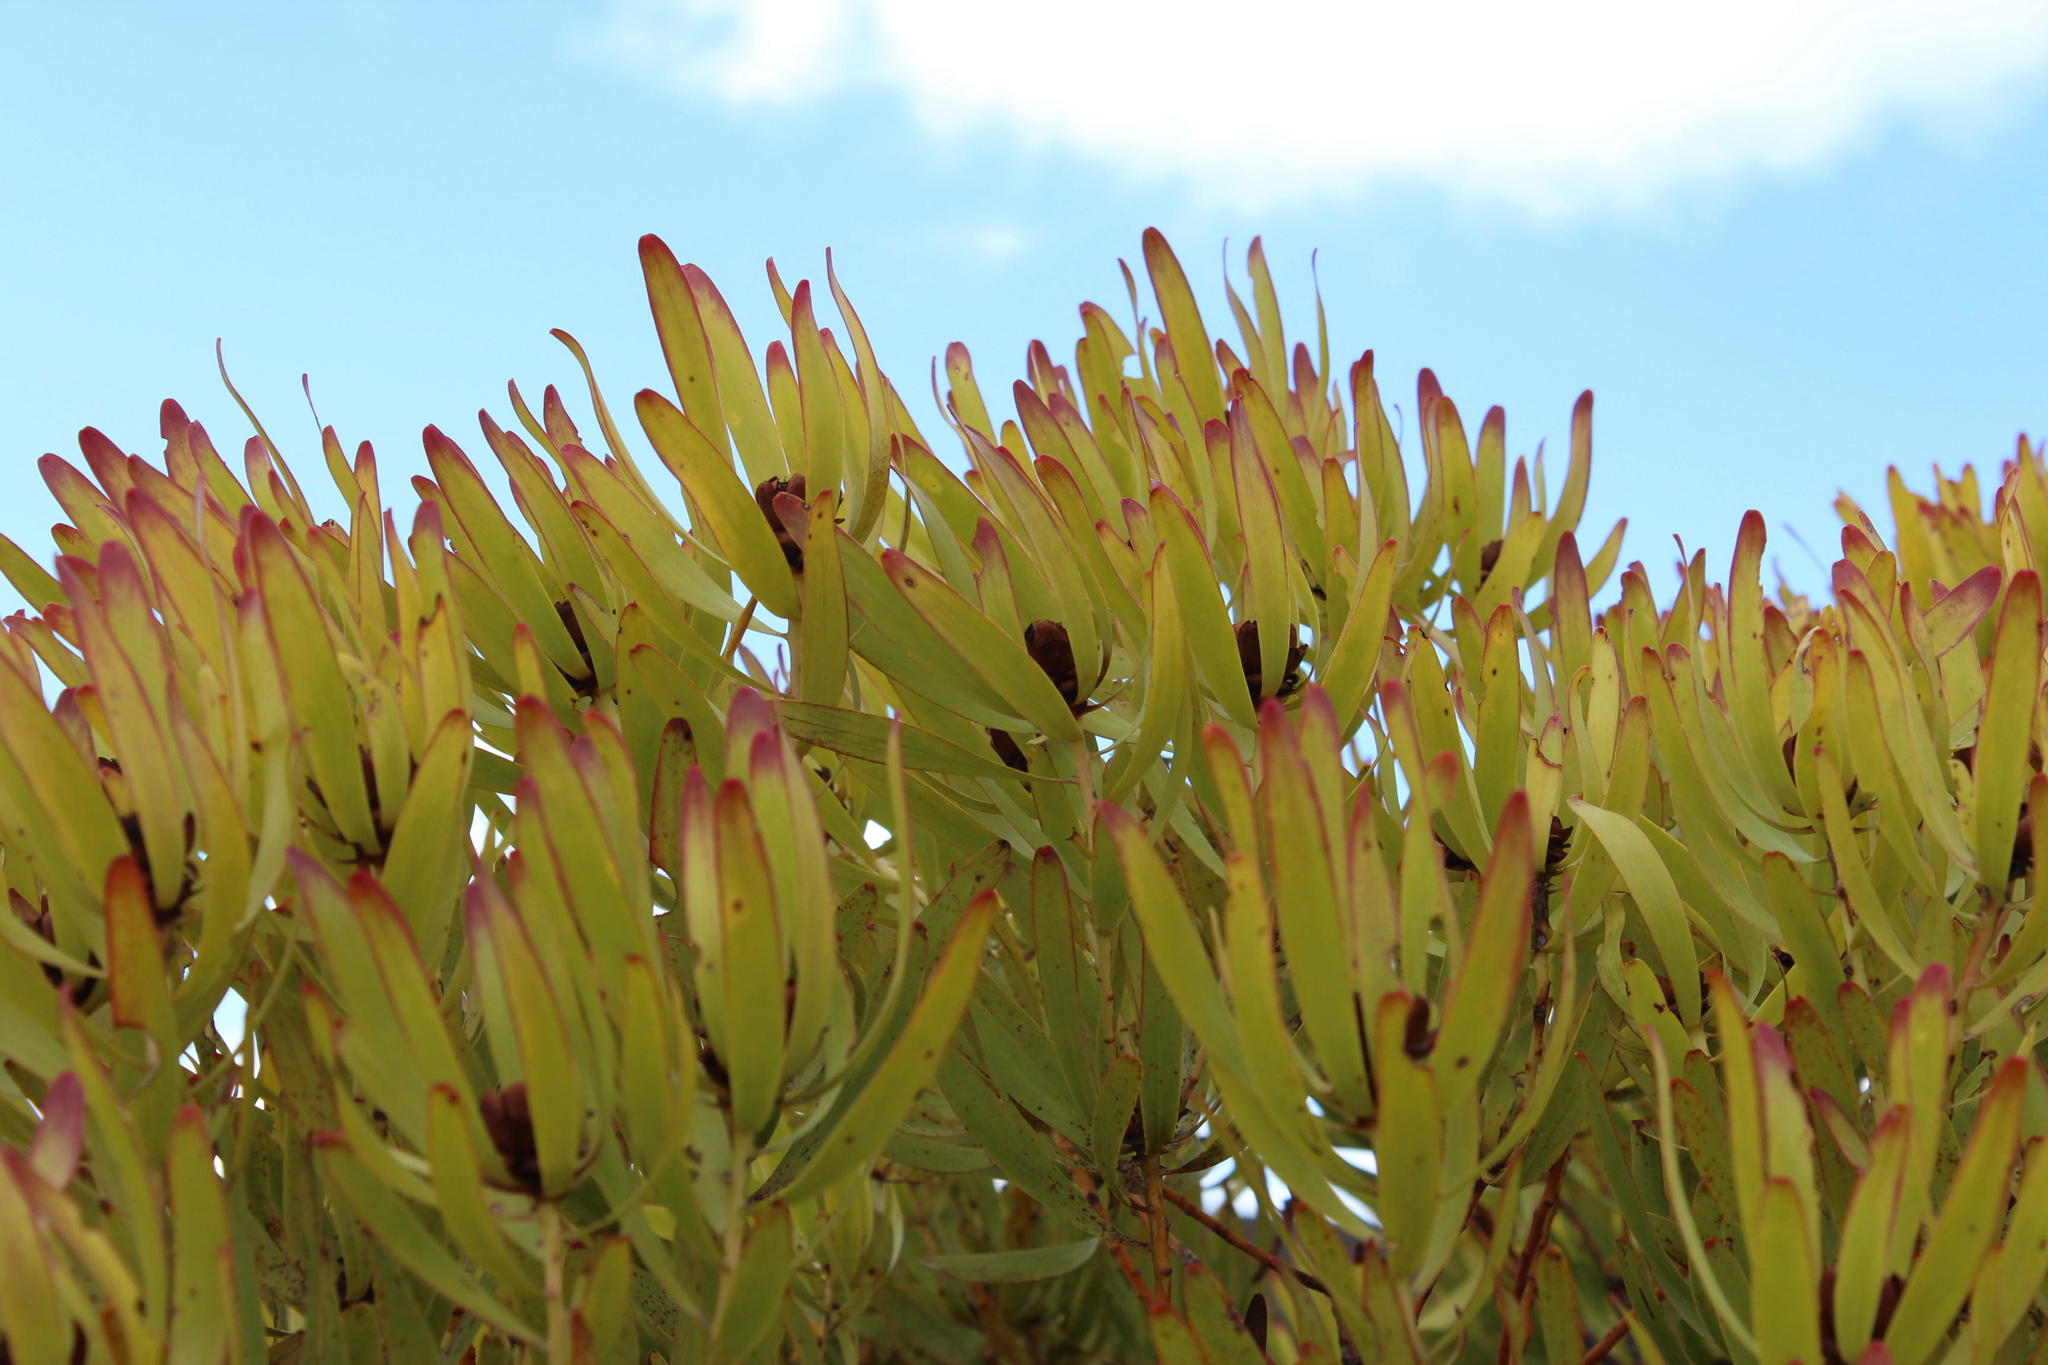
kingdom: Plantae
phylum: Tracheophyta
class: Magnoliopsida
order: Proteales
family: Proteaceae
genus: Leucadendron
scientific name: Leucadendron microcephalum
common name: Oilbract conebush
